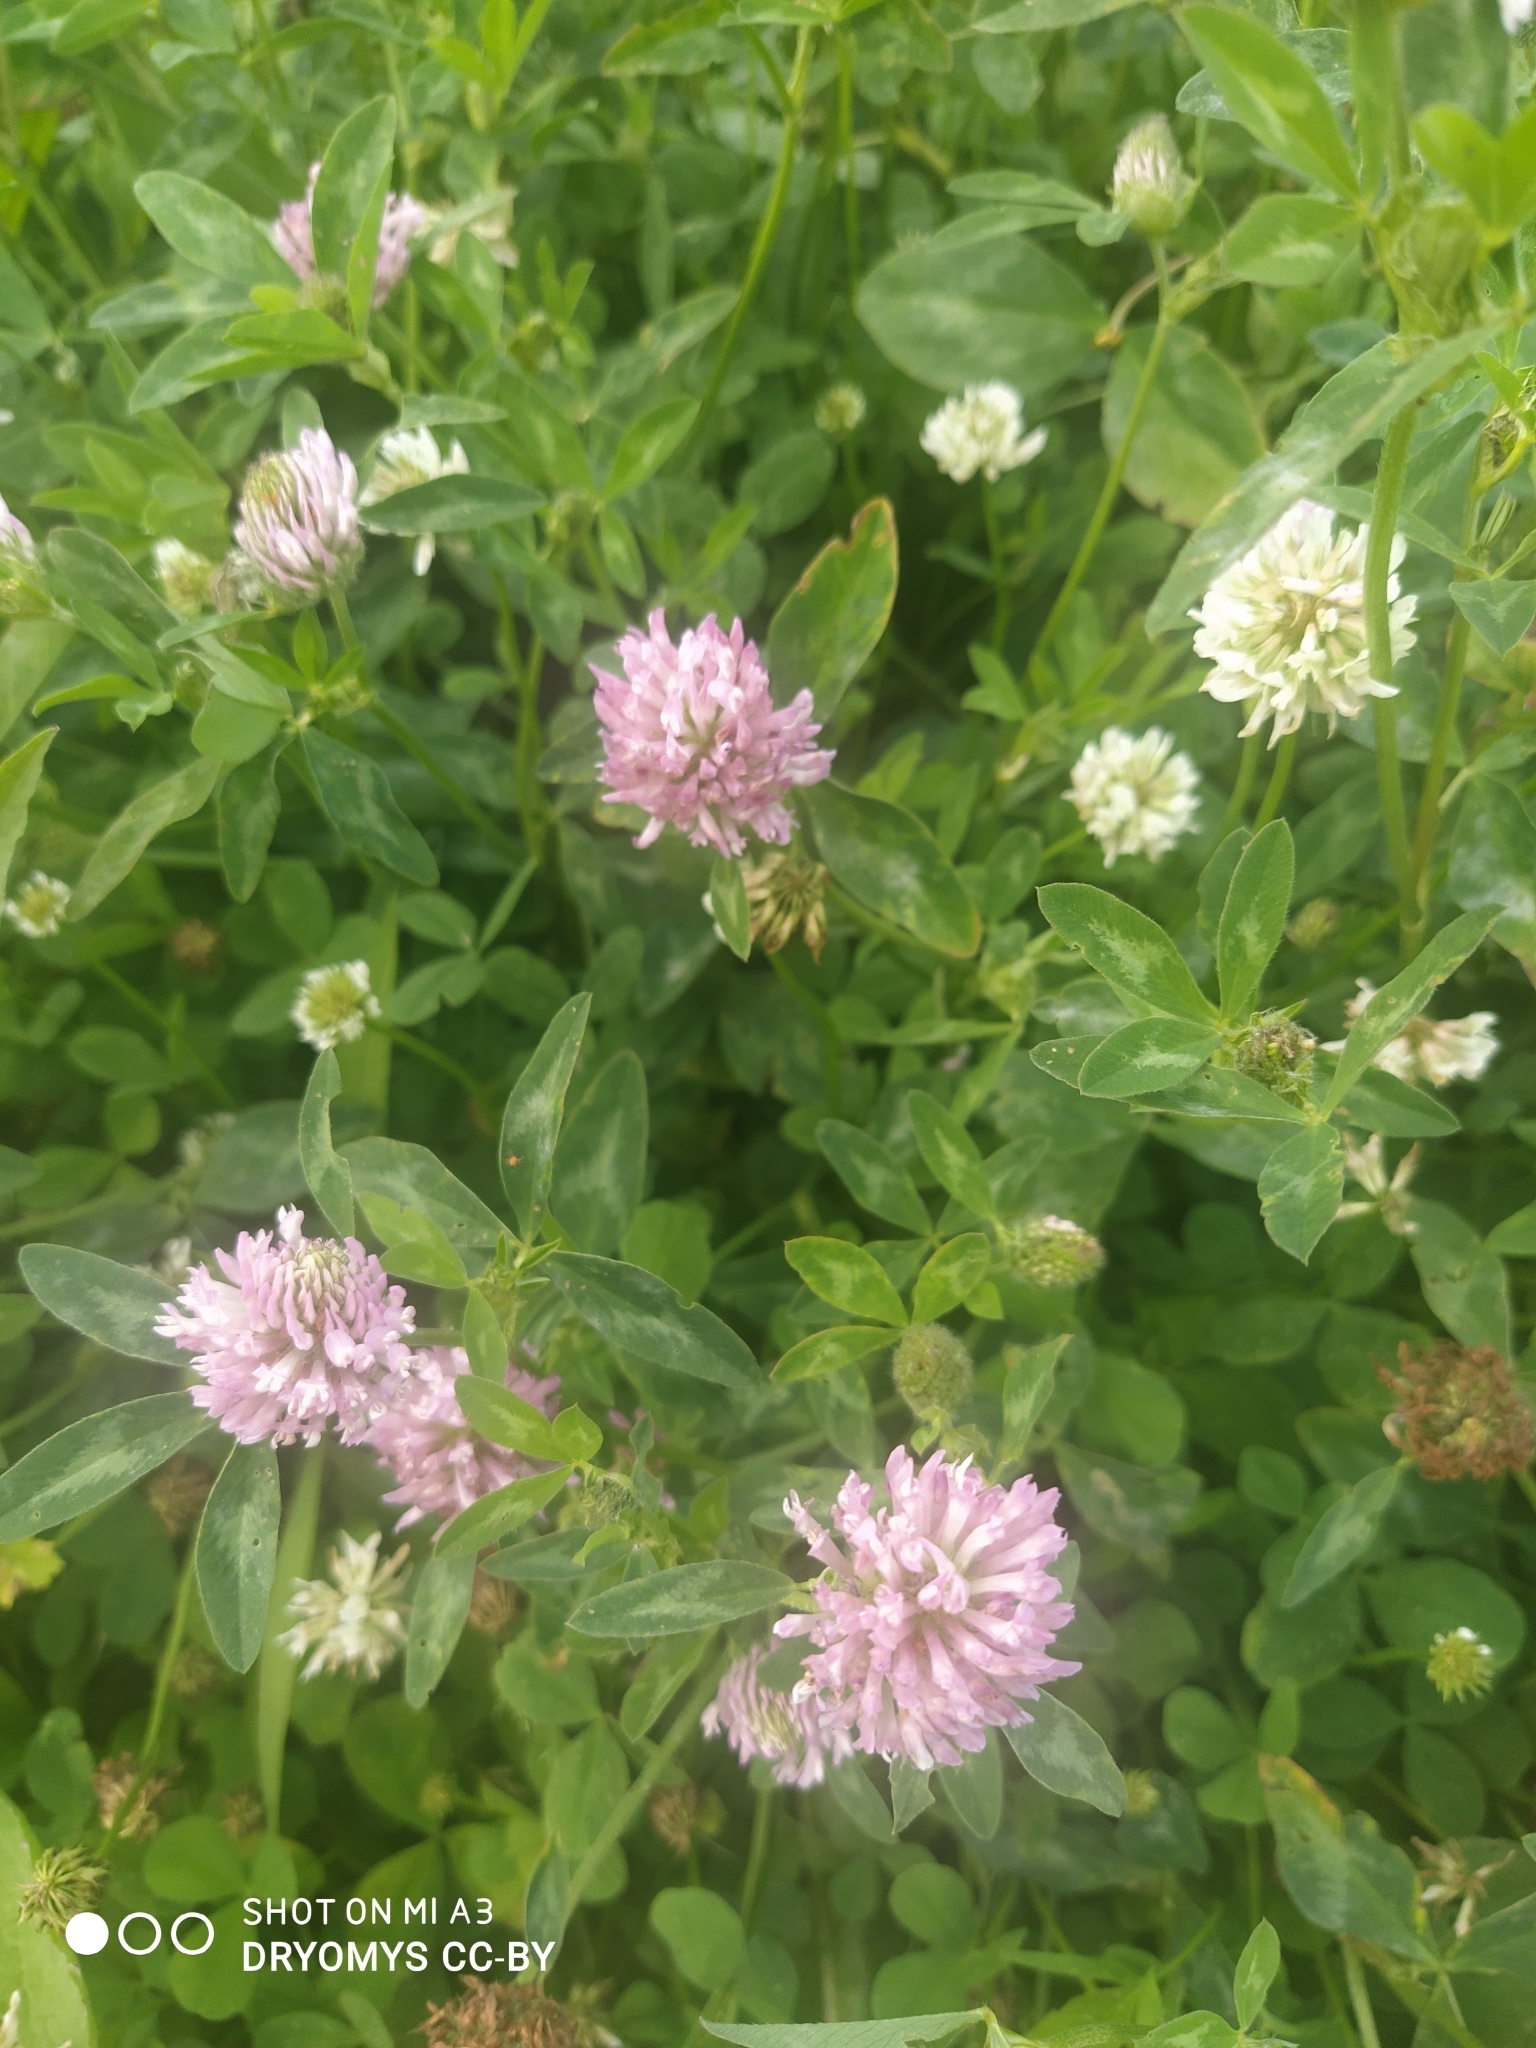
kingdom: Plantae
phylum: Tracheophyta
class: Magnoliopsida
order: Fabales
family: Fabaceae
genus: Trifolium
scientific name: Trifolium pratense
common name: Red clover
